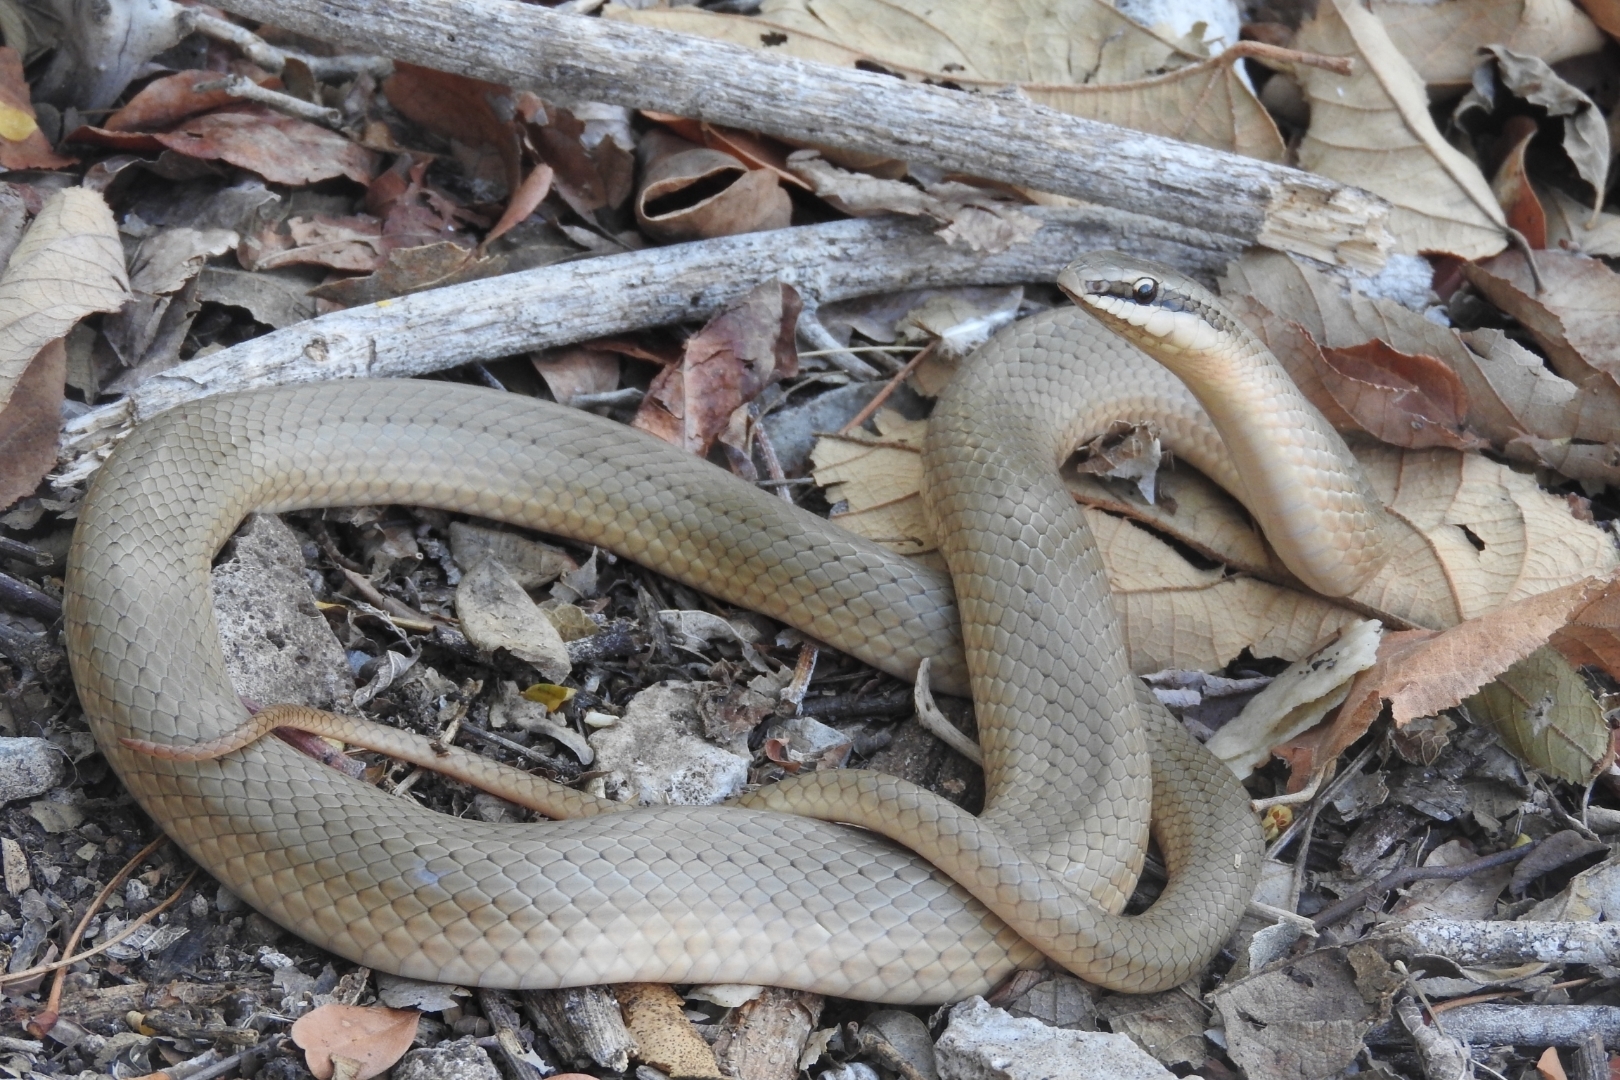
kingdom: Animalia
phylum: Chordata
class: Squamata
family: Colubridae
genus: Conophis
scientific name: Conophis lineatus
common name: Road guarder
